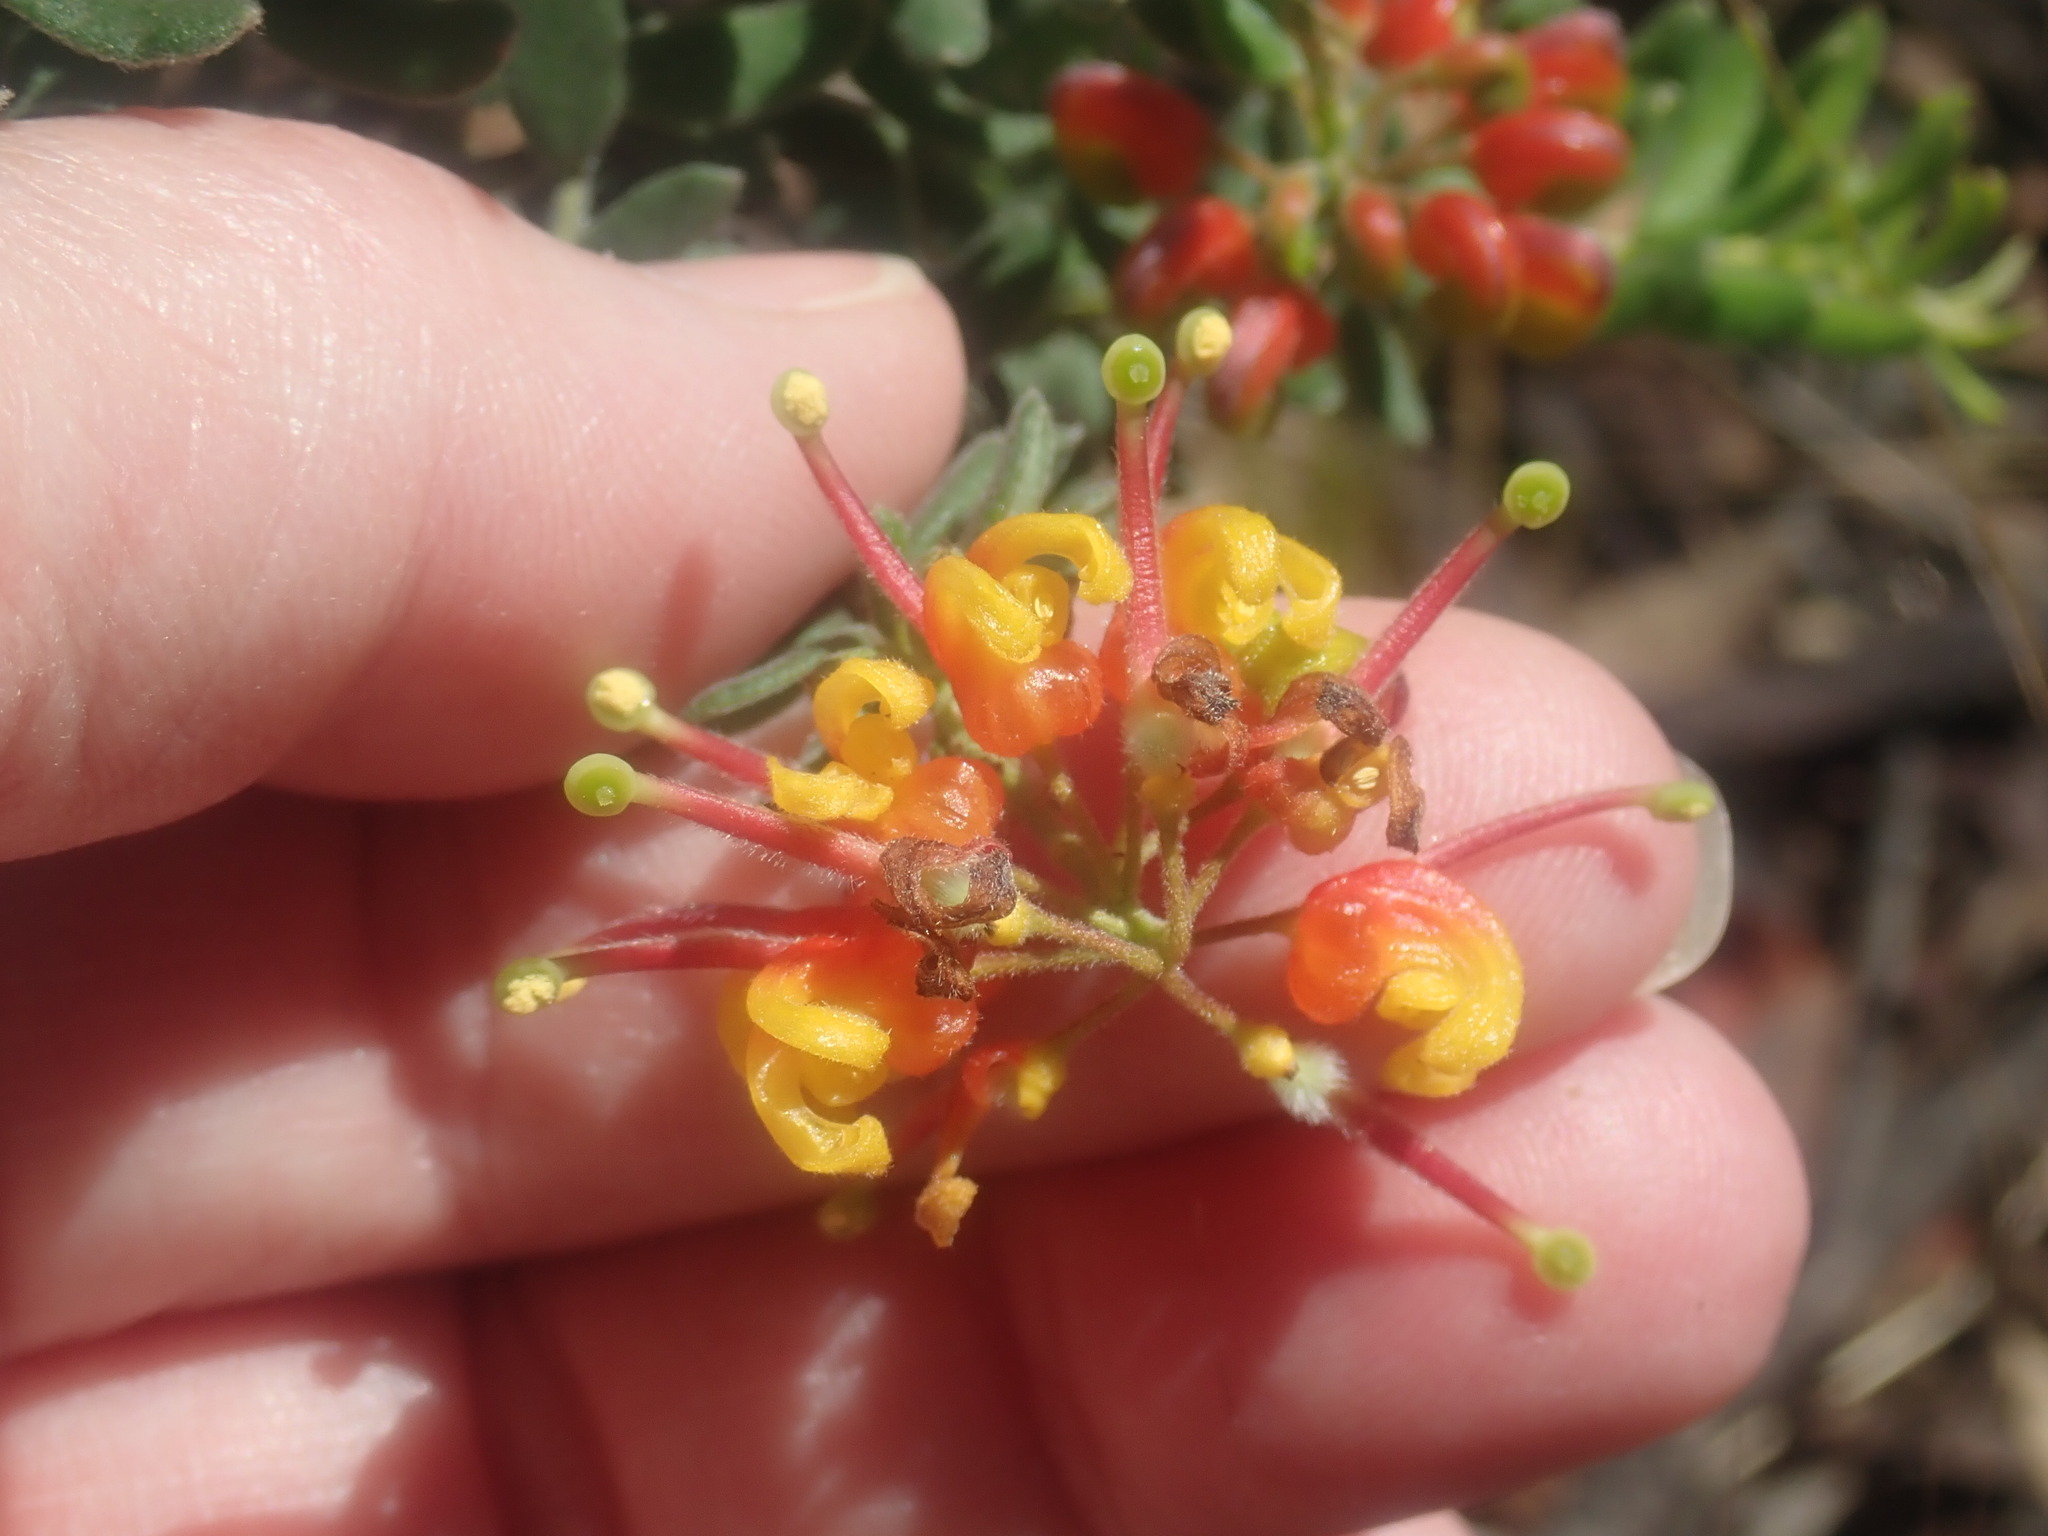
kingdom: Plantae
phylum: Tracheophyta
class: Magnoliopsida
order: Proteales
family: Proteaceae
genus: Grevillea
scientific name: Grevillea alpina
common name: Catclaws grevillea
